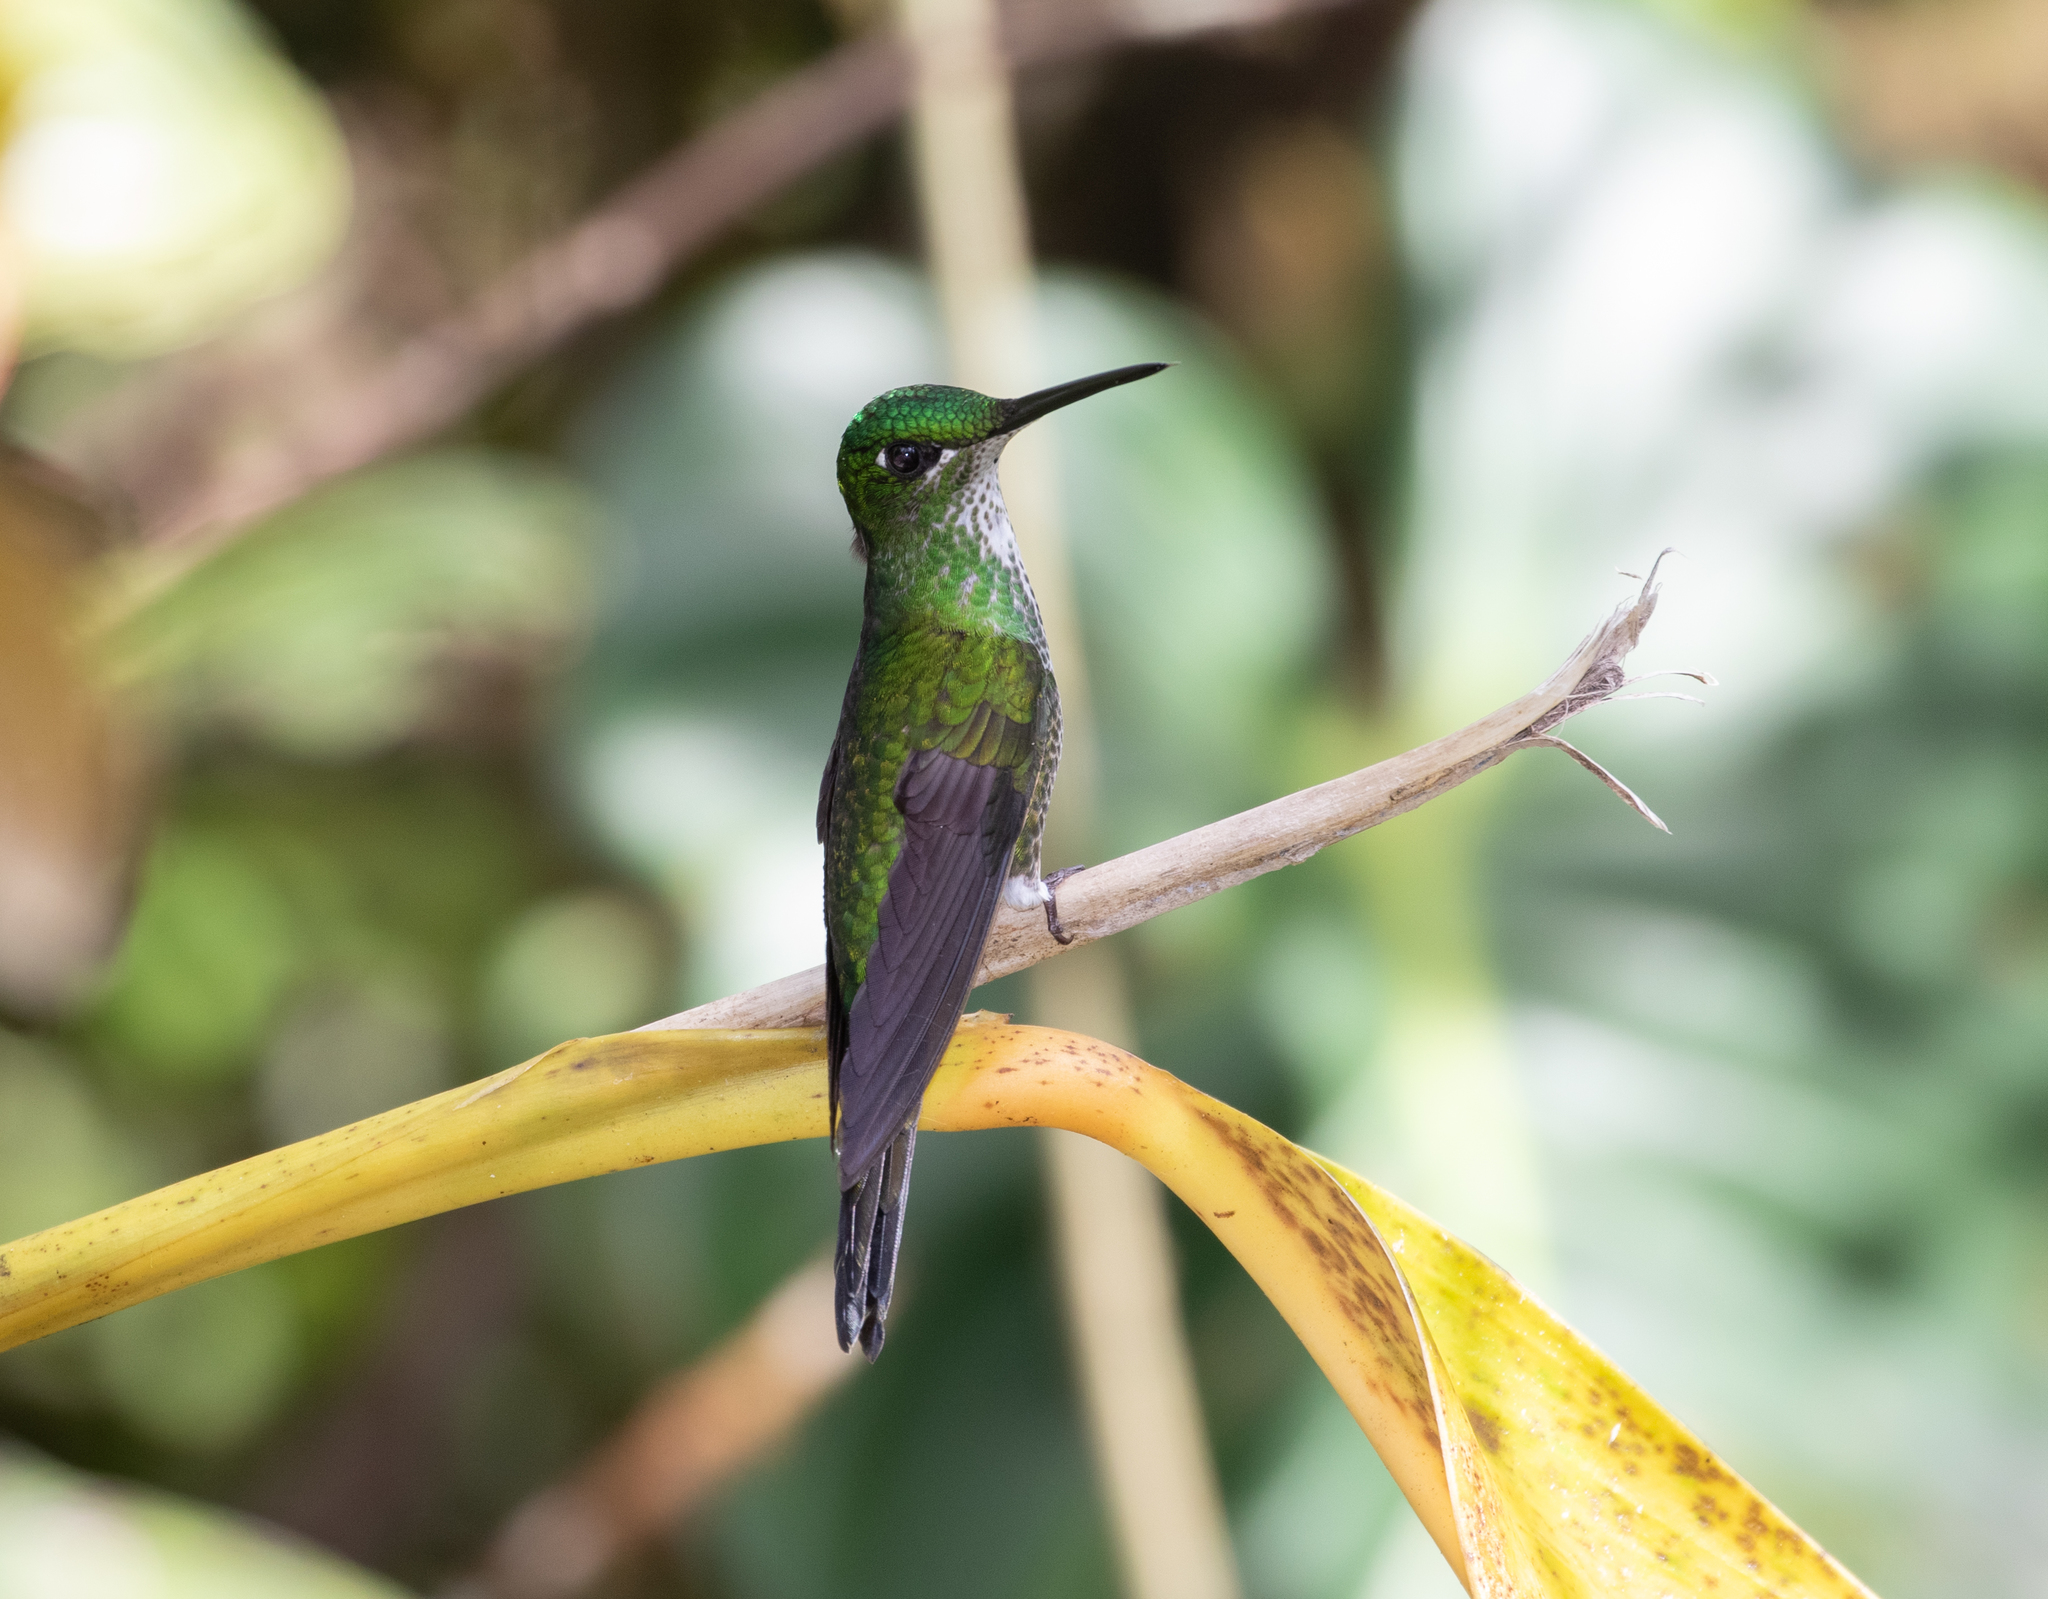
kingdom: Animalia
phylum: Chordata
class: Aves
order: Apodiformes
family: Trochilidae
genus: Heliodoxa
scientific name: Heliodoxa imperatrix
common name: Empress brilliant
